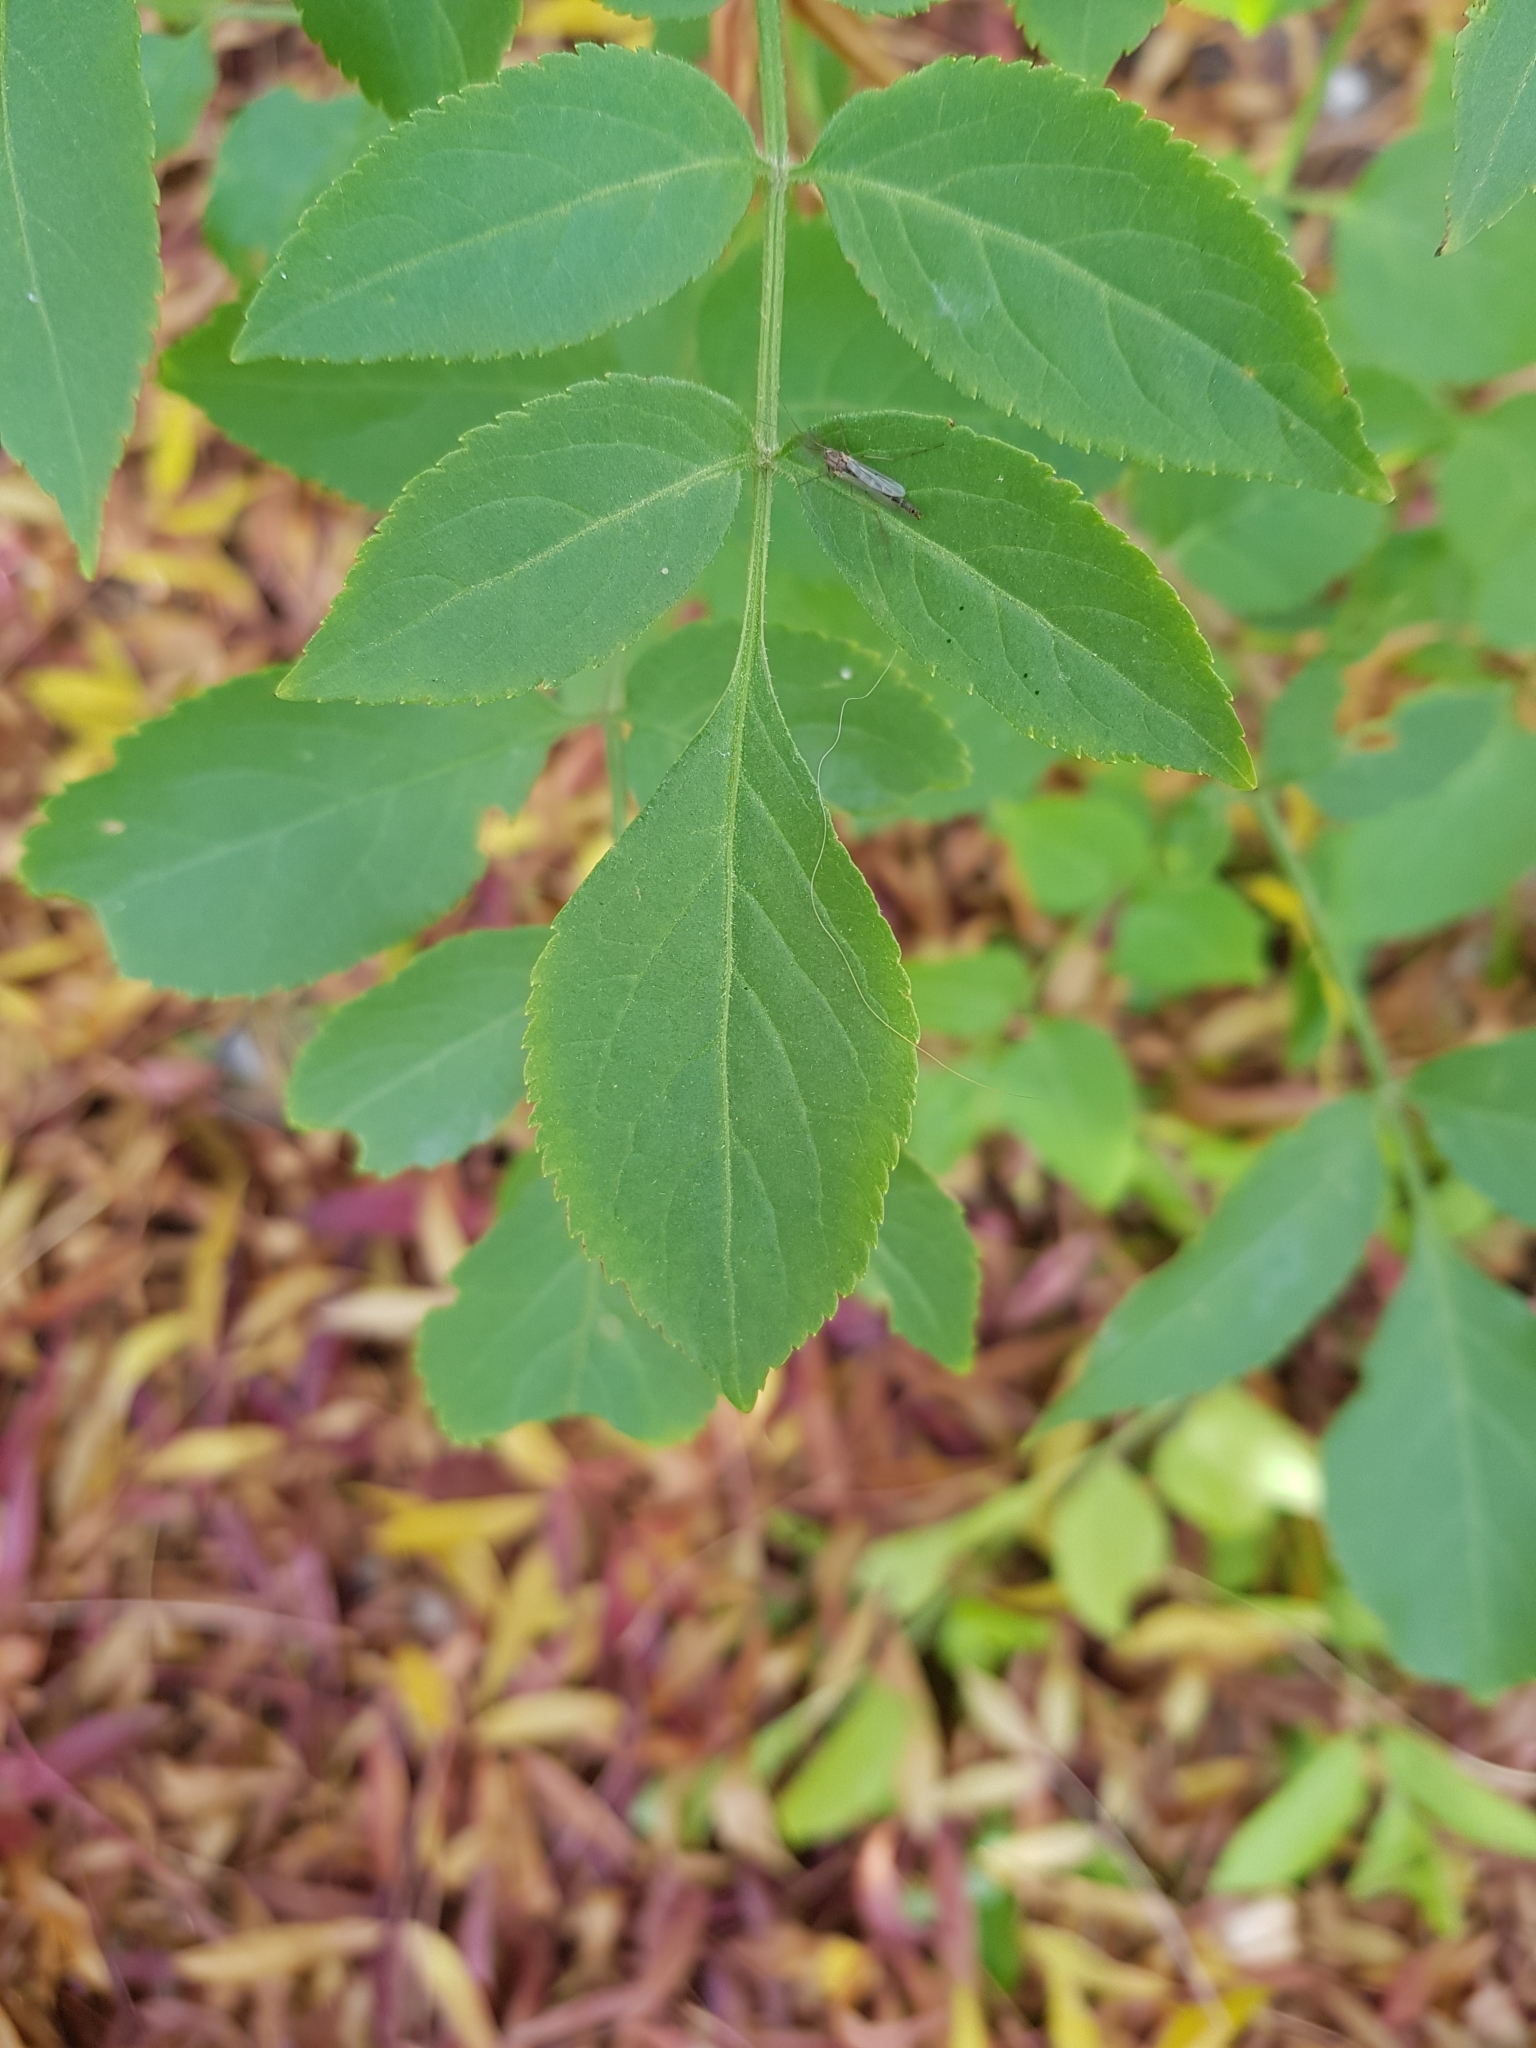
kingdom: Plantae
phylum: Tracheophyta
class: Magnoliopsida
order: Dipsacales
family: Viburnaceae
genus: Sambucus
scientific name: Sambucus nigra
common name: Elder
